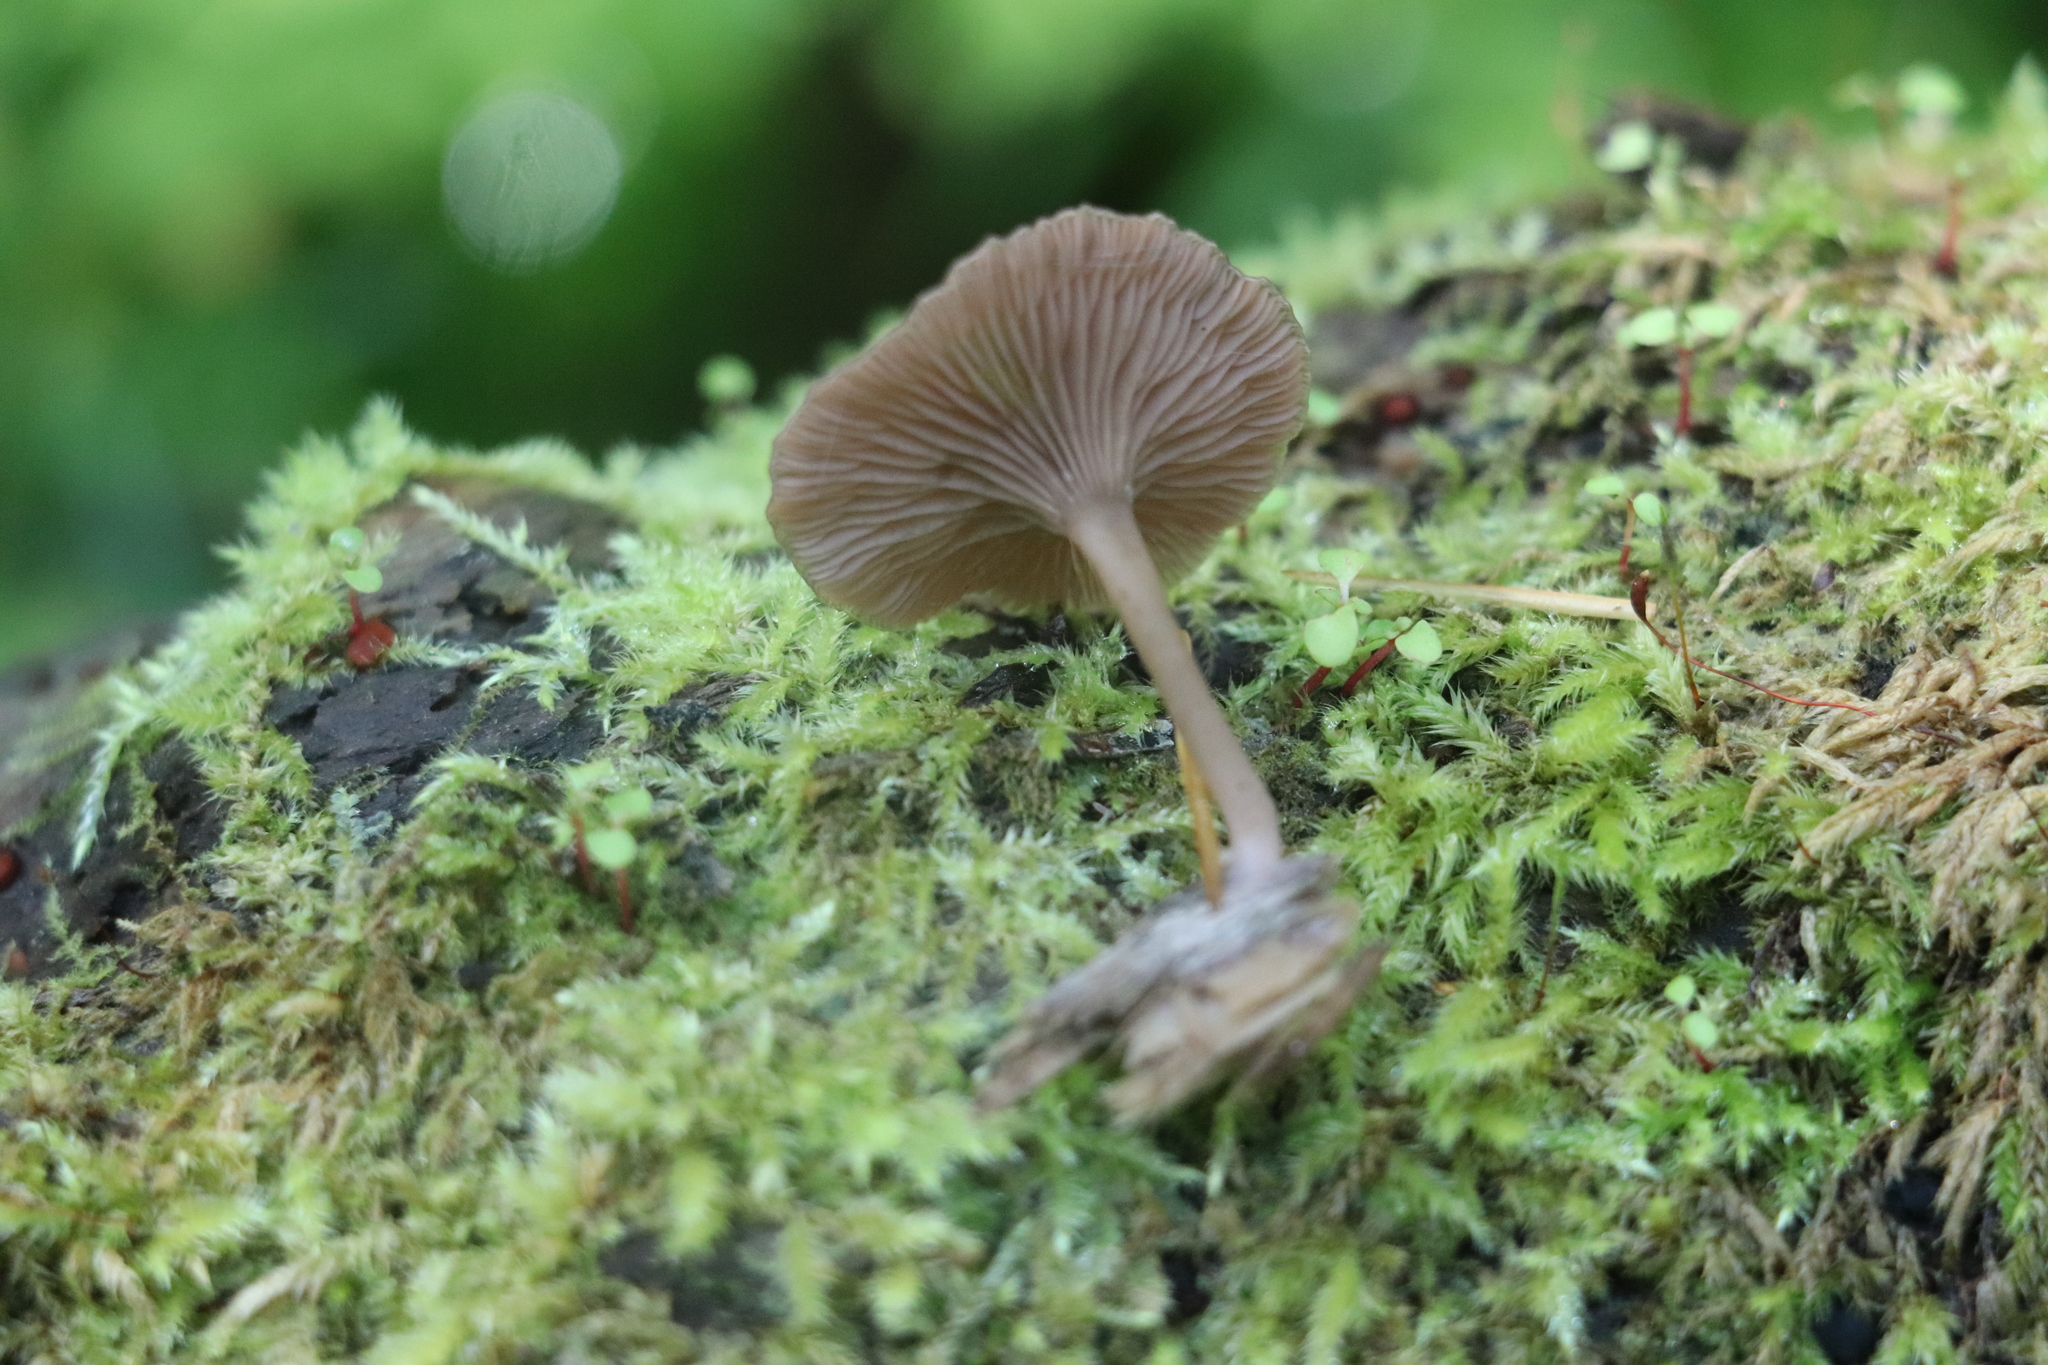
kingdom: Fungi
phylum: Basidiomycota
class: Agaricomycetes
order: Agaricales
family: Hygrophoraceae
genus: Arrhenia
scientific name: Arrhenia epichysium
